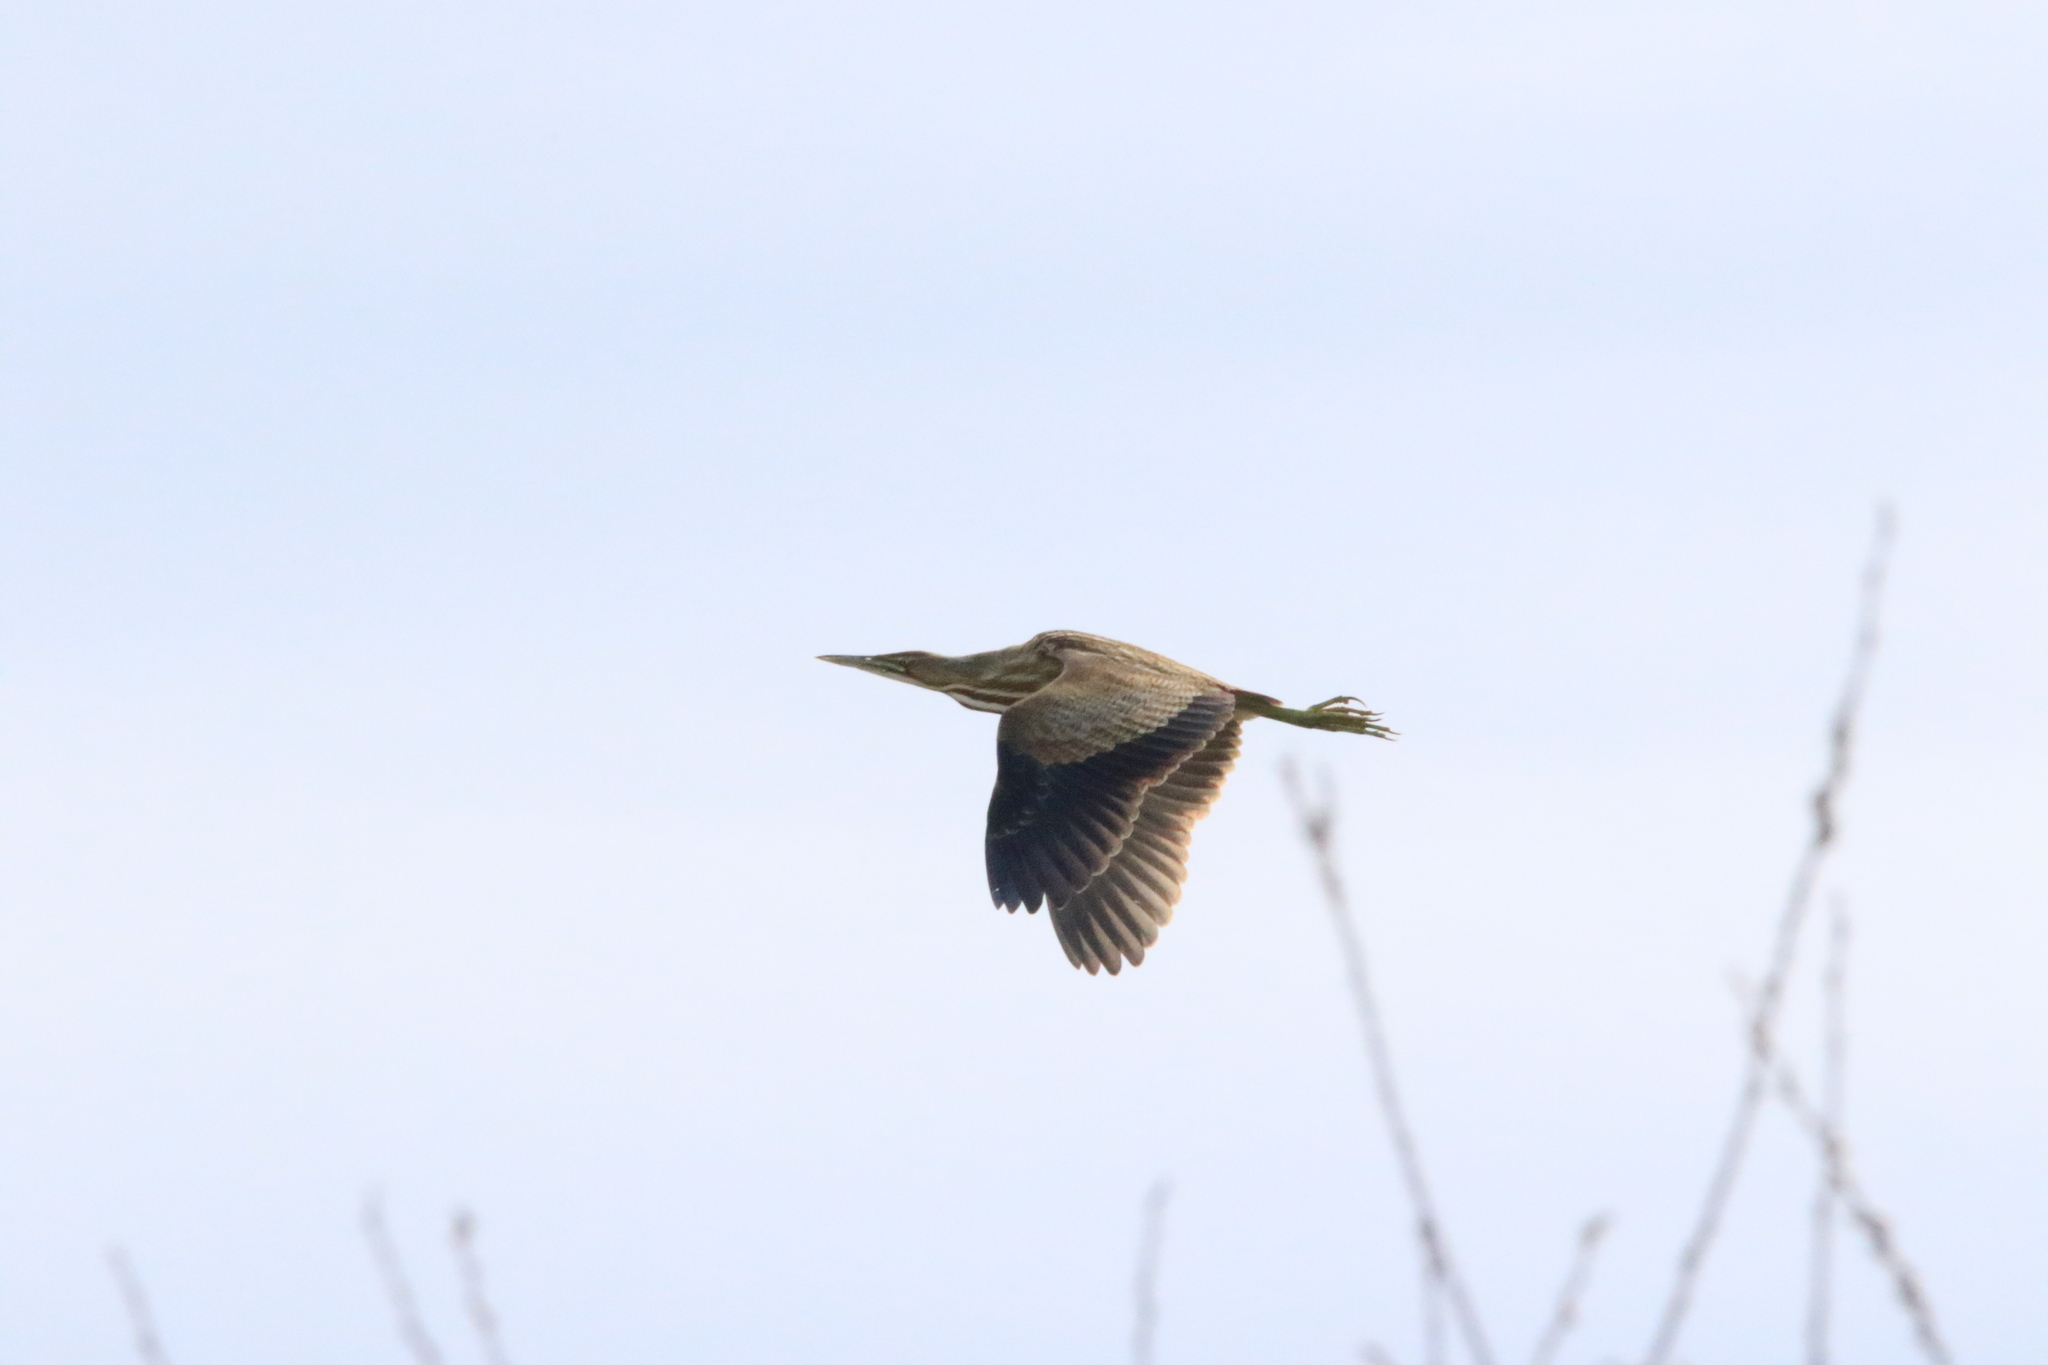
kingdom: Animalia
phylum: Chordata
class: Aves
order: Pelecaniformes
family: Ardeidae
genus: Botaurus
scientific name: Botaurus lentiginosus
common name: American bittern
